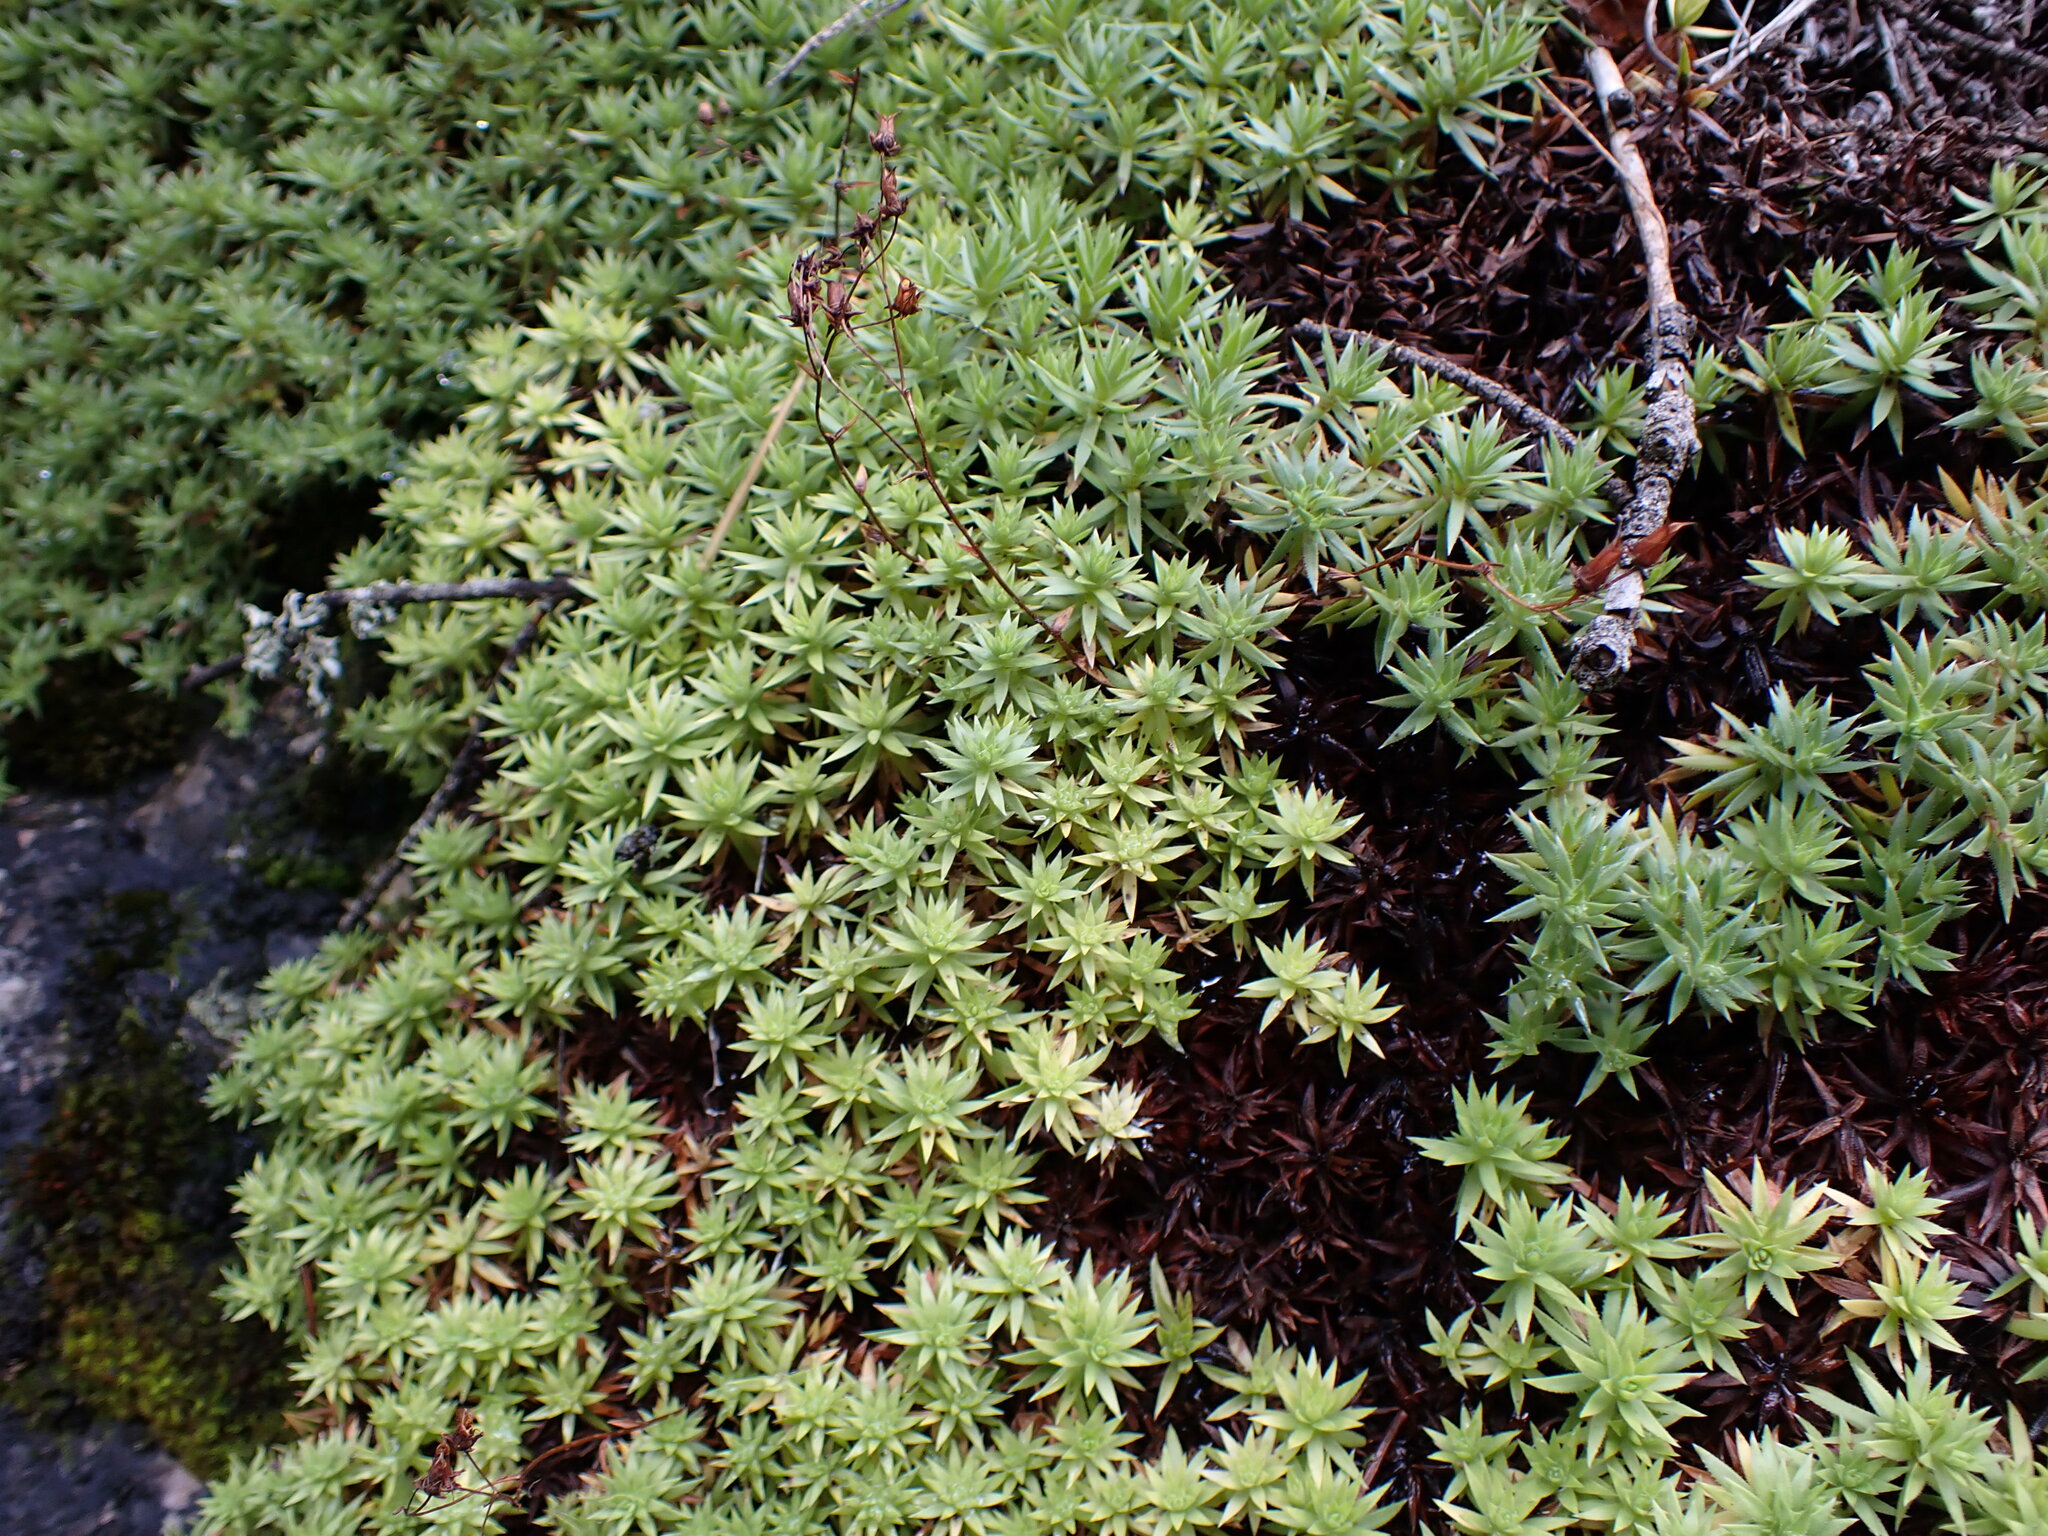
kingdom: Plantae
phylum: Tracheophyta
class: Magnoliopsida
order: Saxifragales
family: Saxifragaceae
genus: Saxifraga
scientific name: Saxifraga bronchialis
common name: Matted saxifrage
